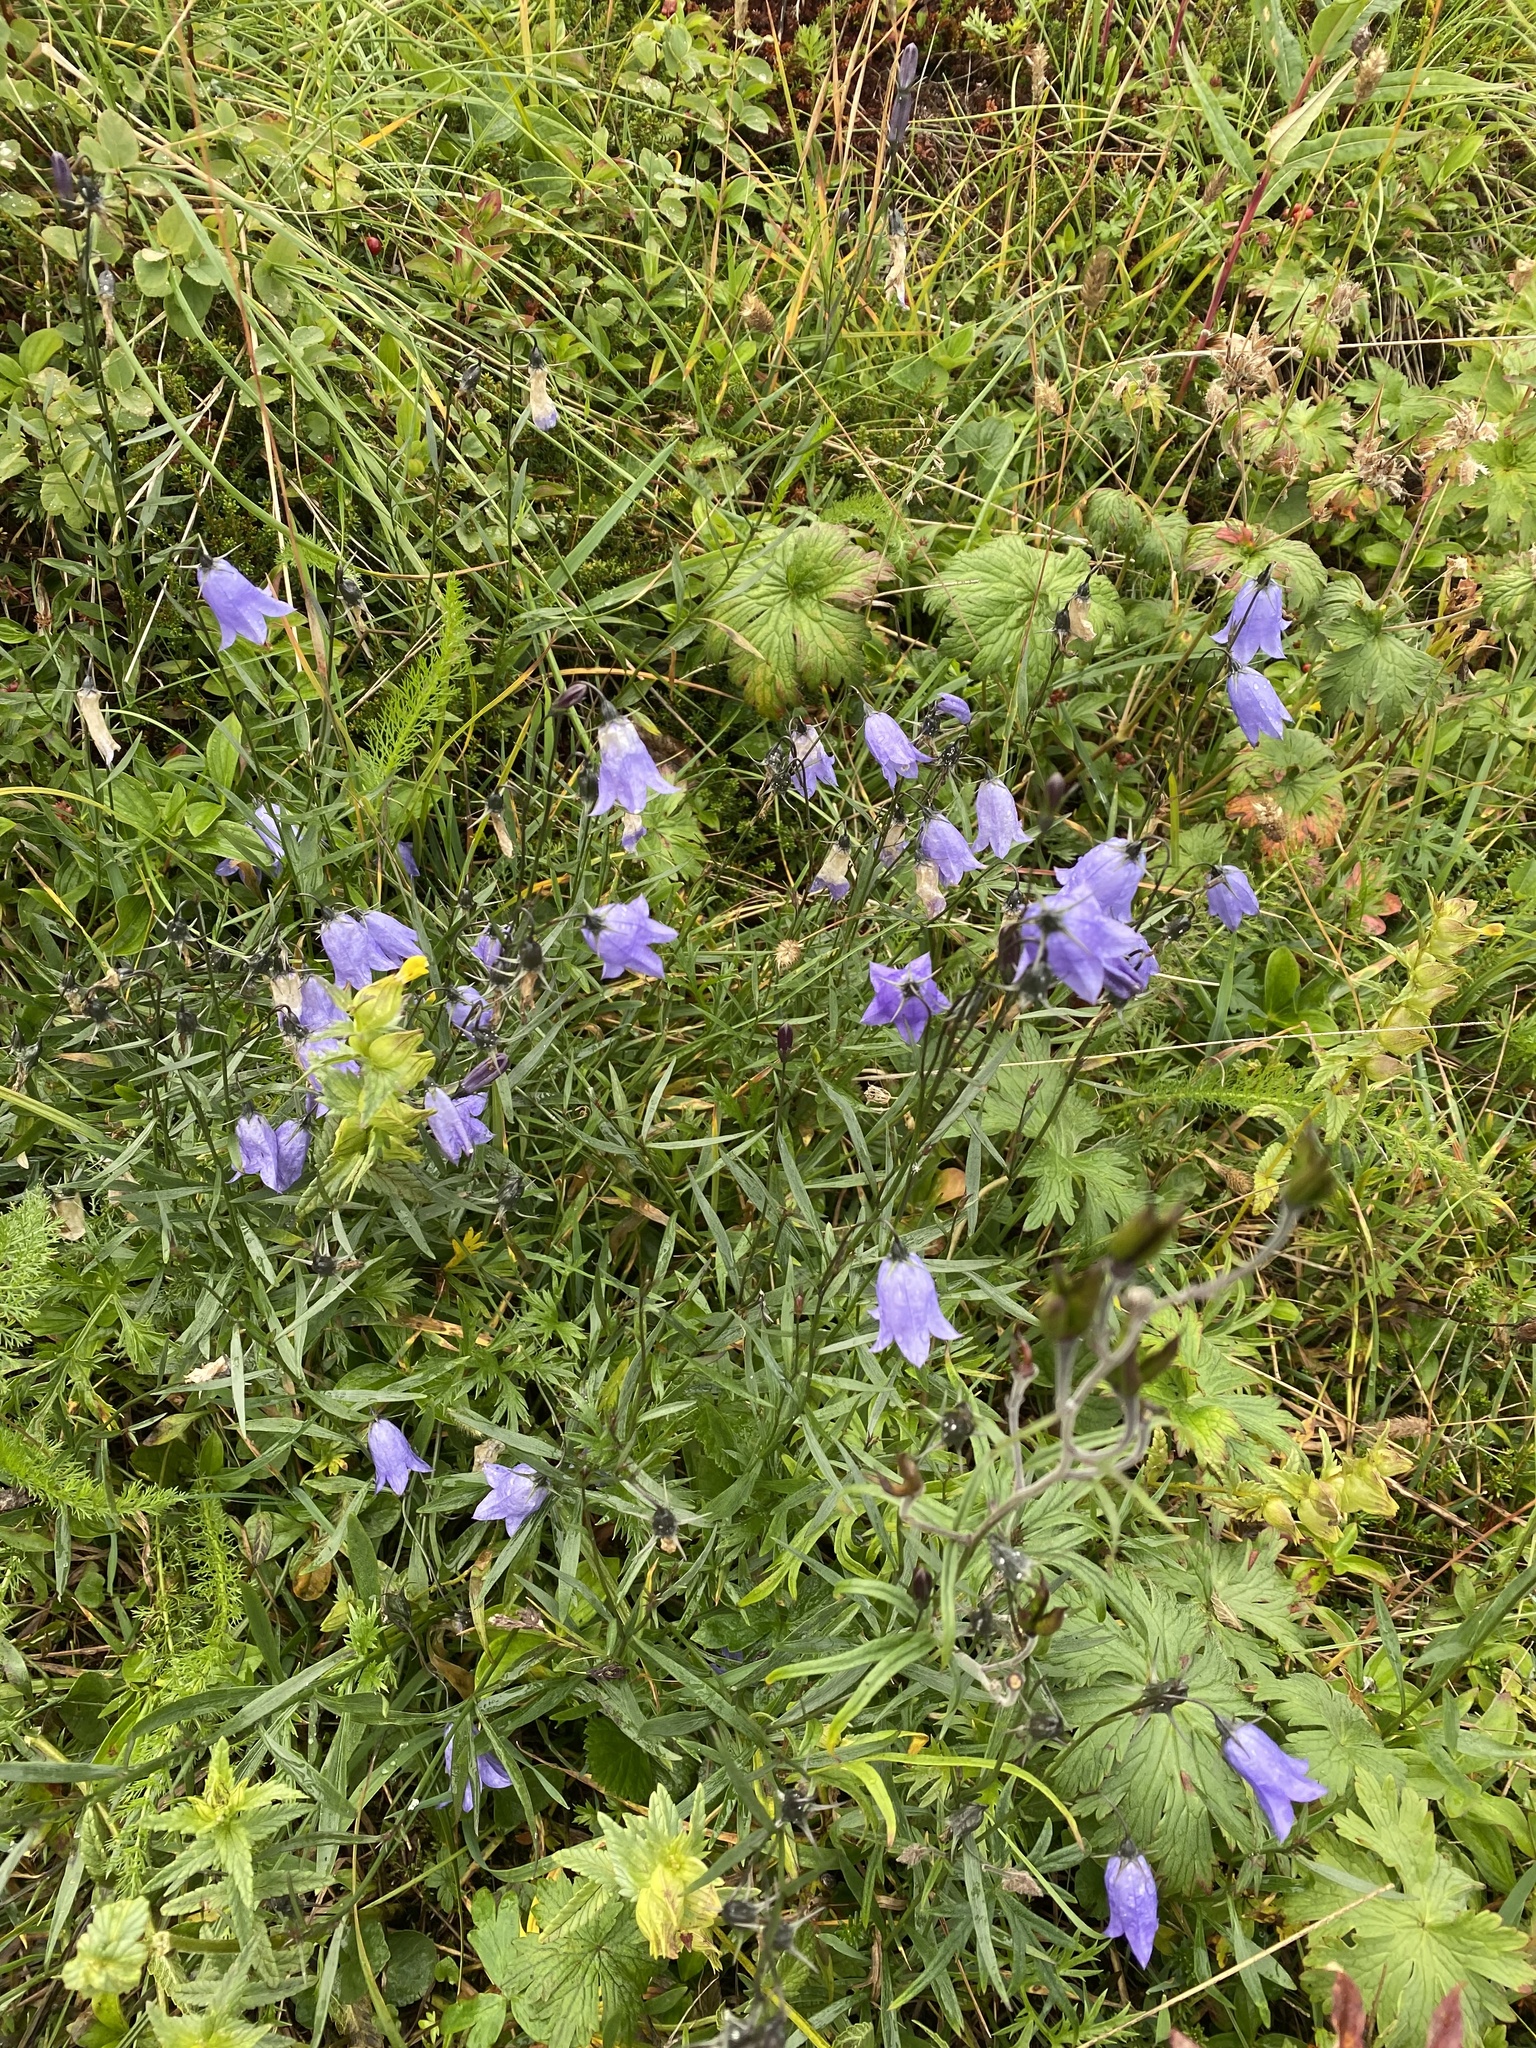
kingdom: Plantae
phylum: Tracheophyta
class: Magnoliopsida
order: Asterales
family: Campanulaceae
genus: Campanula
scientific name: Campanula alaskana
